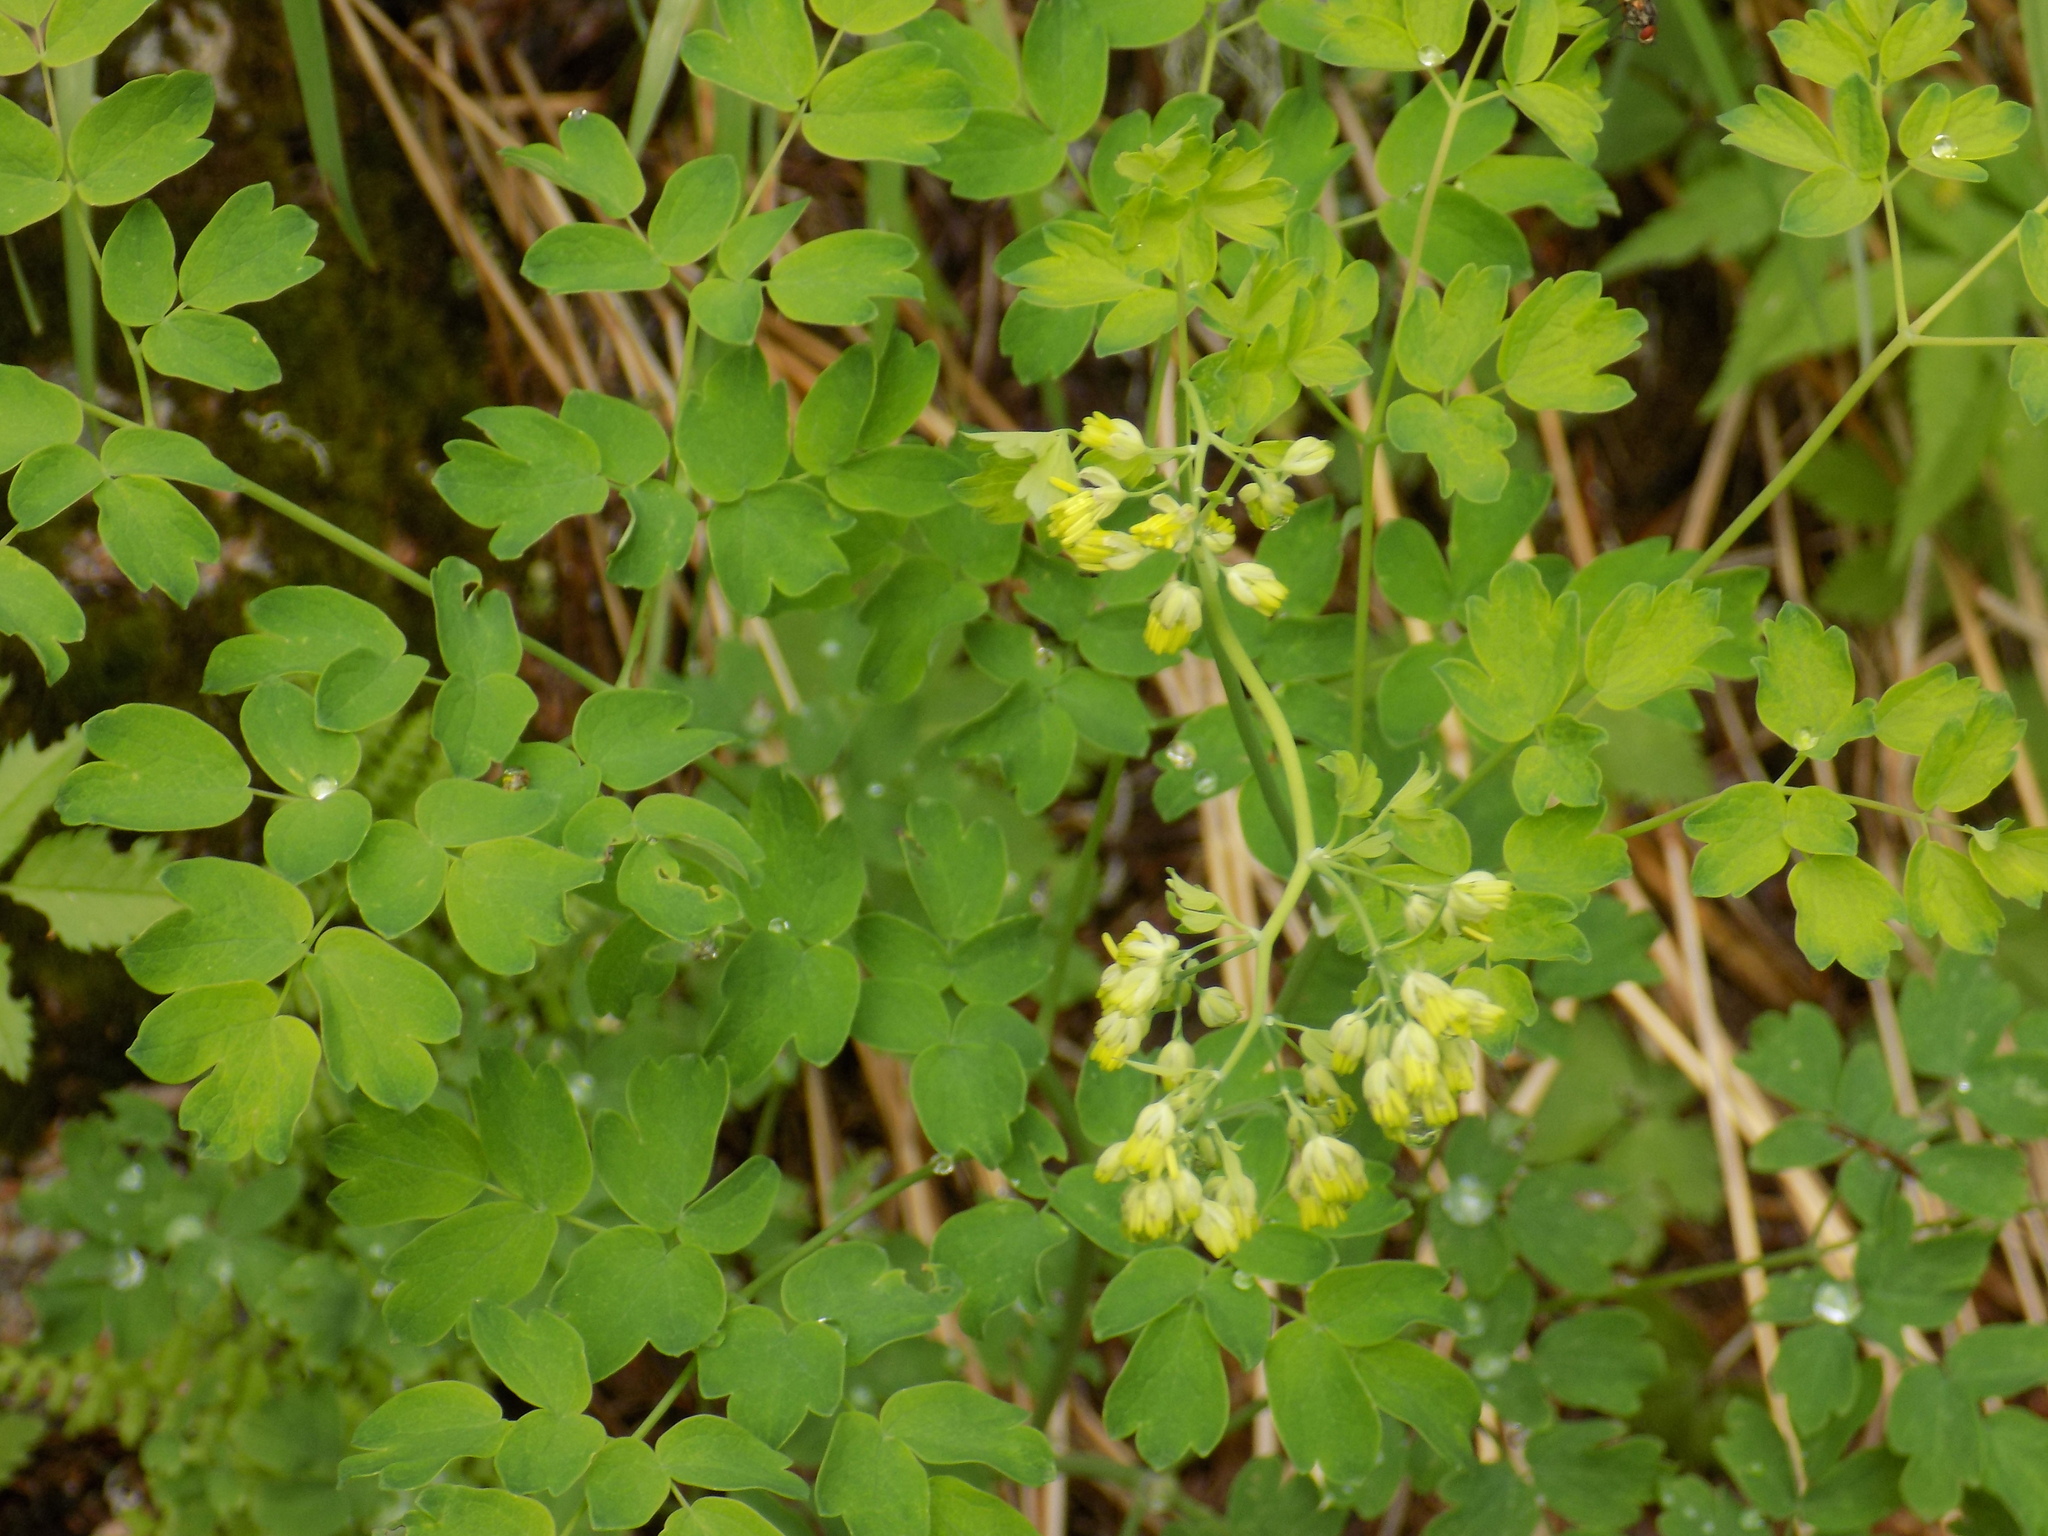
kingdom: Plantae
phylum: Tracheophyta
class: Magnoliopsida
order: Ranunculales
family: Ranunculaceae
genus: Thalictrum
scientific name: Thalictrum minus
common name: Lesser meadow-rue
